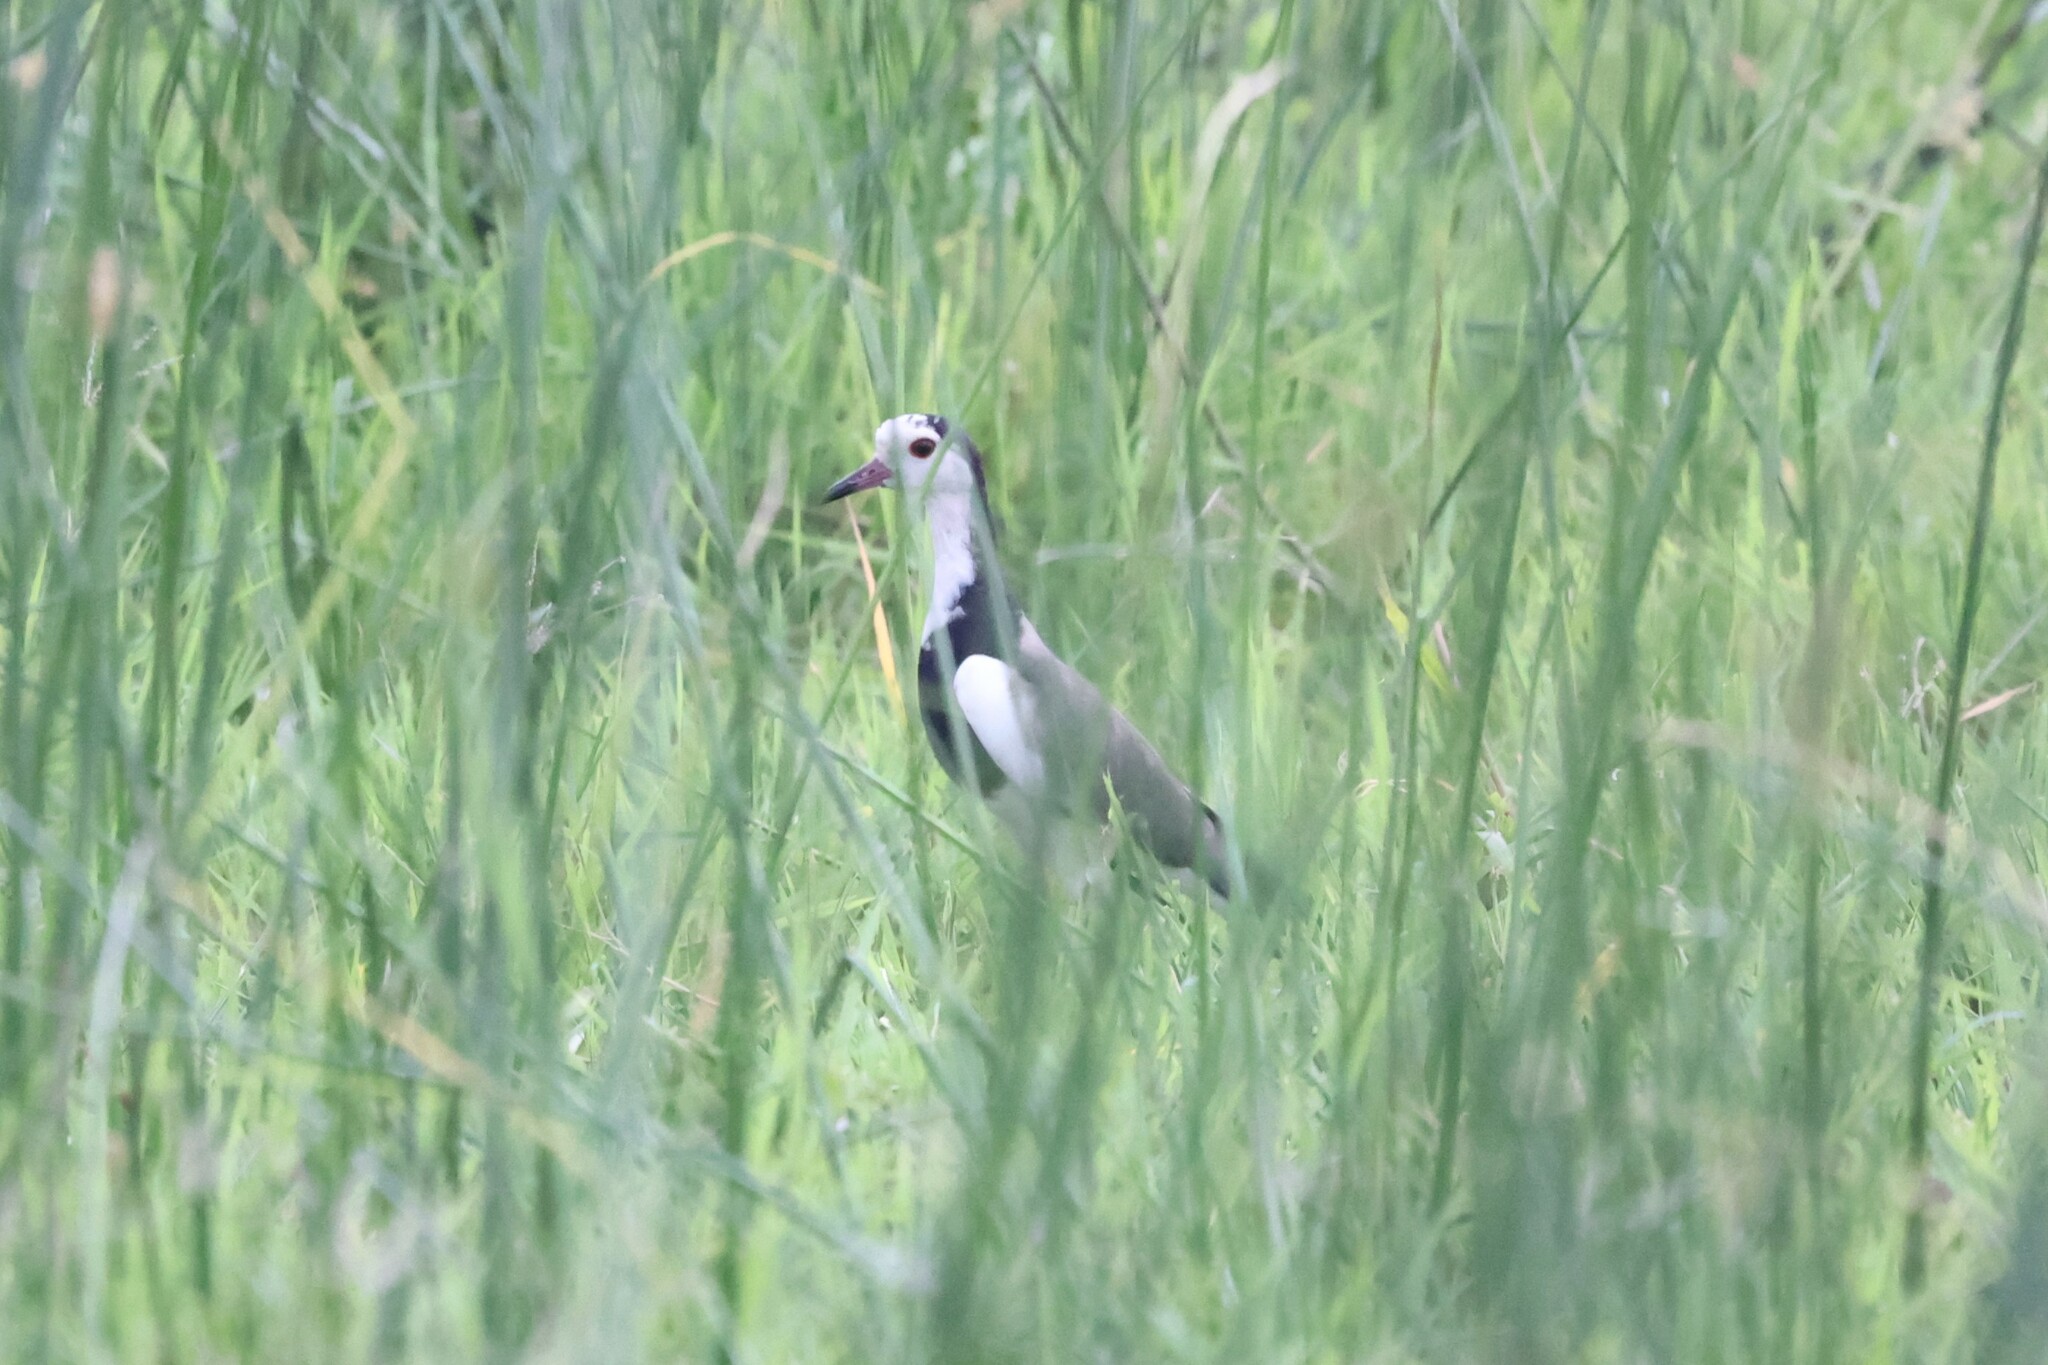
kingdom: Animalia
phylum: Chordata
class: Aves
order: Charadriiformes
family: Charadriidae
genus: Vanellus
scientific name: Vanellus crassirostris
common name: Long-toed lapwing
